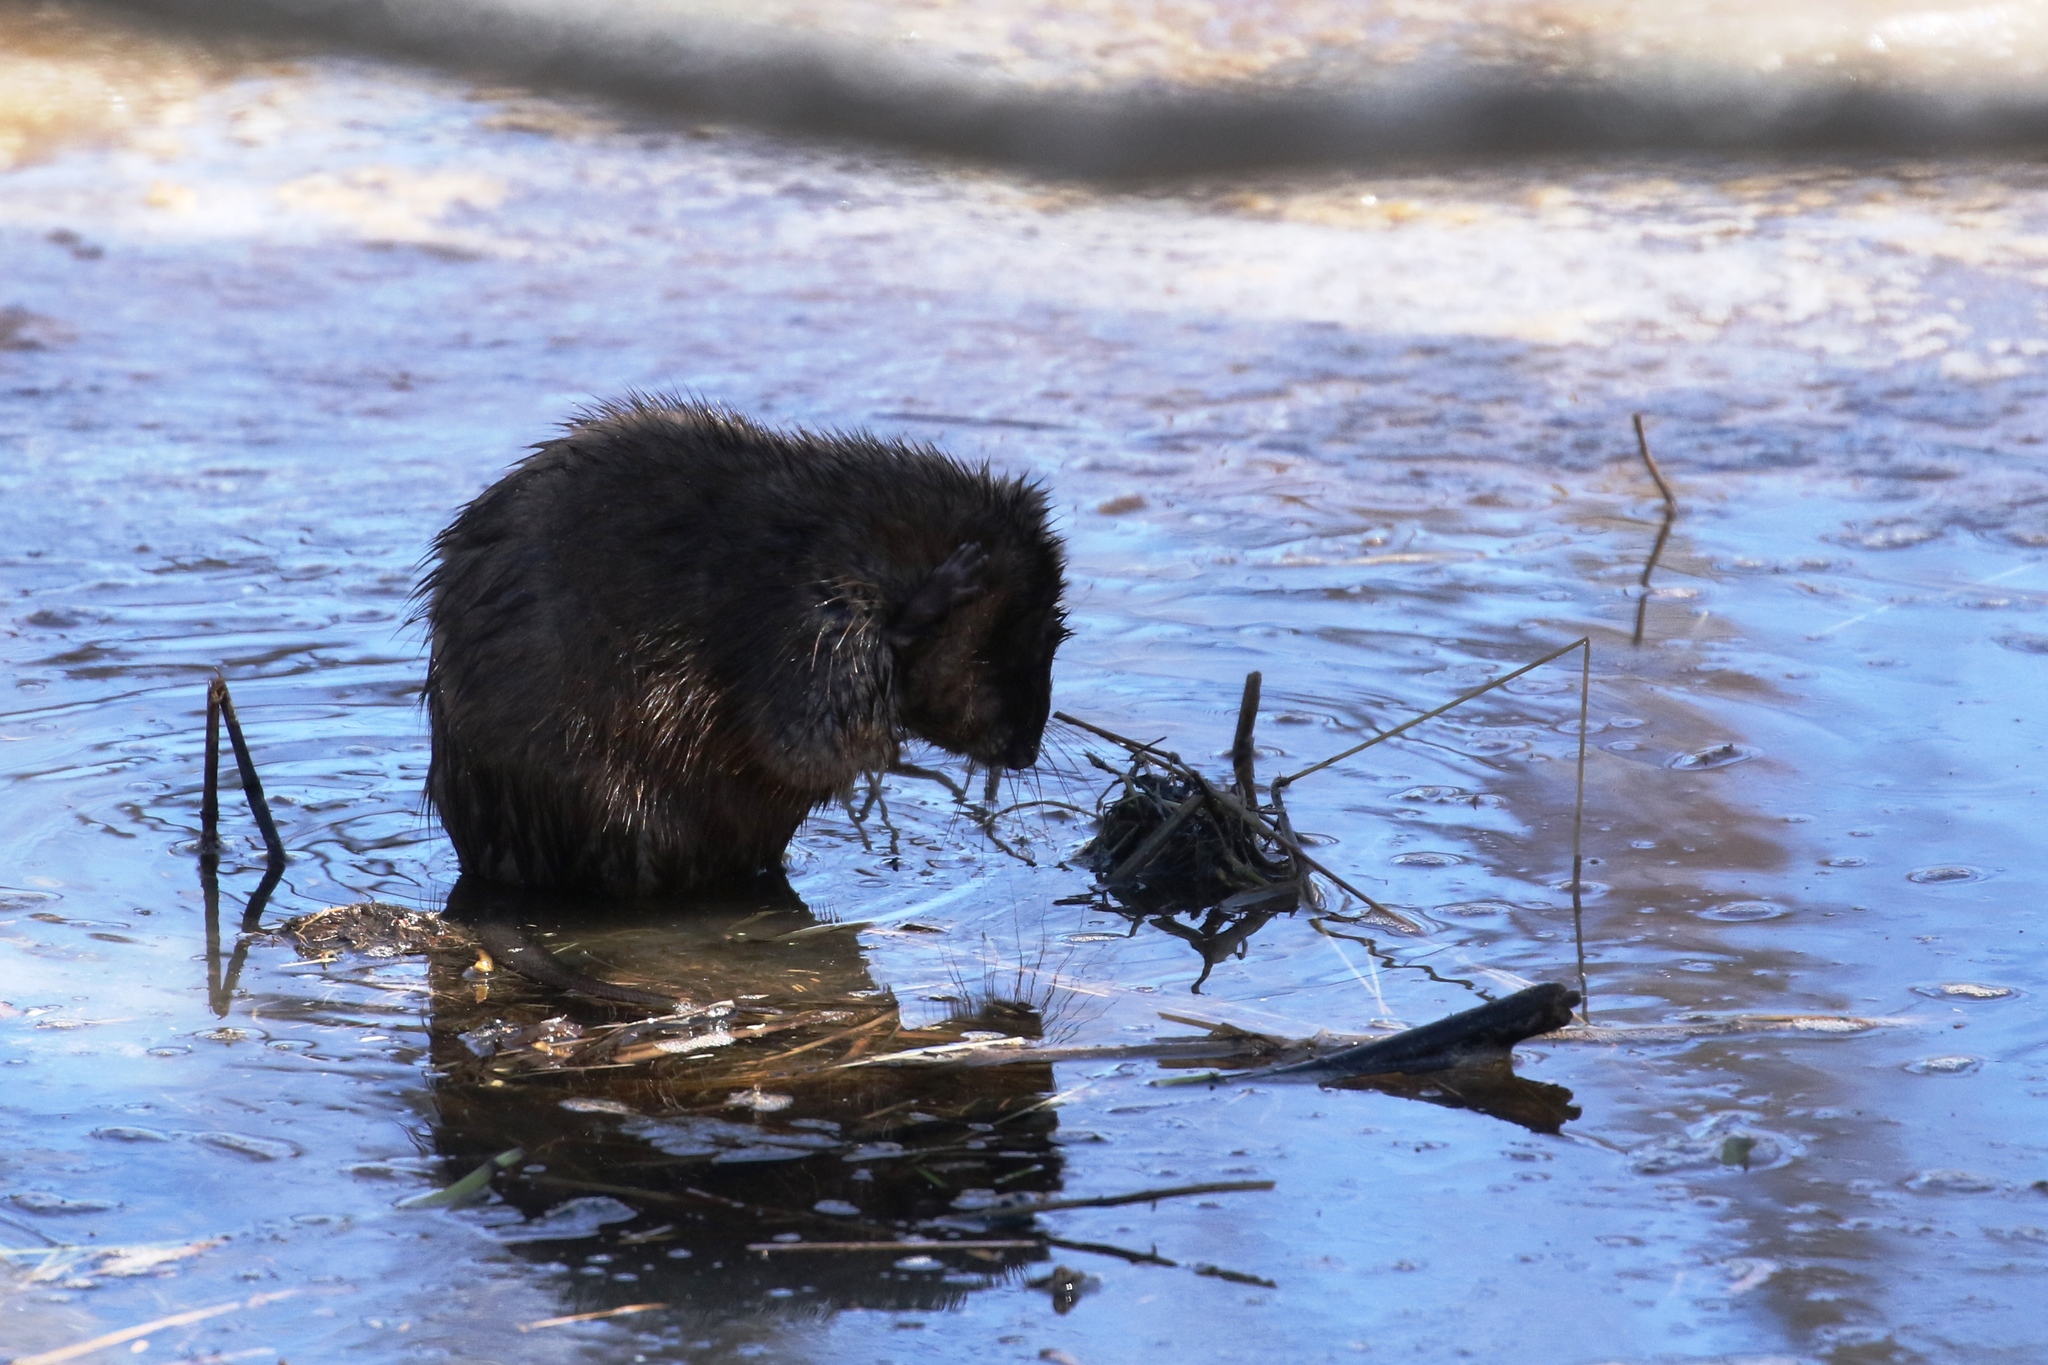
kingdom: Animalia
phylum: Chordata
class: Mammalia
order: Rodentia
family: Cricetidae
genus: Ondatra
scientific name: Ondatra zibethicus
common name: Muskrat
